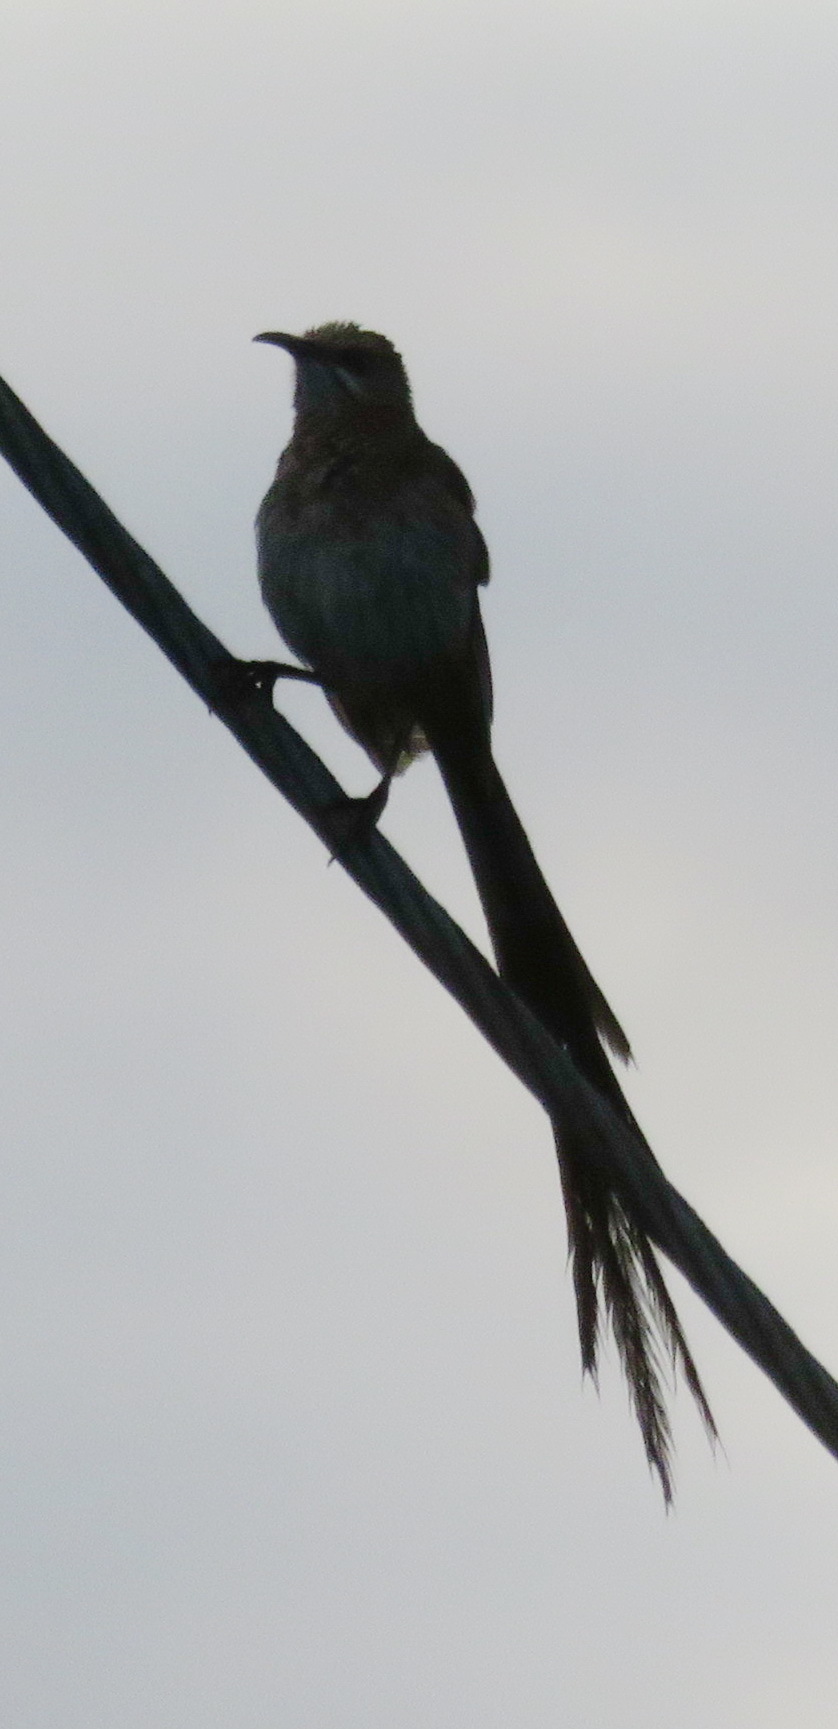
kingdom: Animalia
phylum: Chordata
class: Aves
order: Passeriformes
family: Promeropidae
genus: Promerops
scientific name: Promerops cafer
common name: Cape sugarbird
